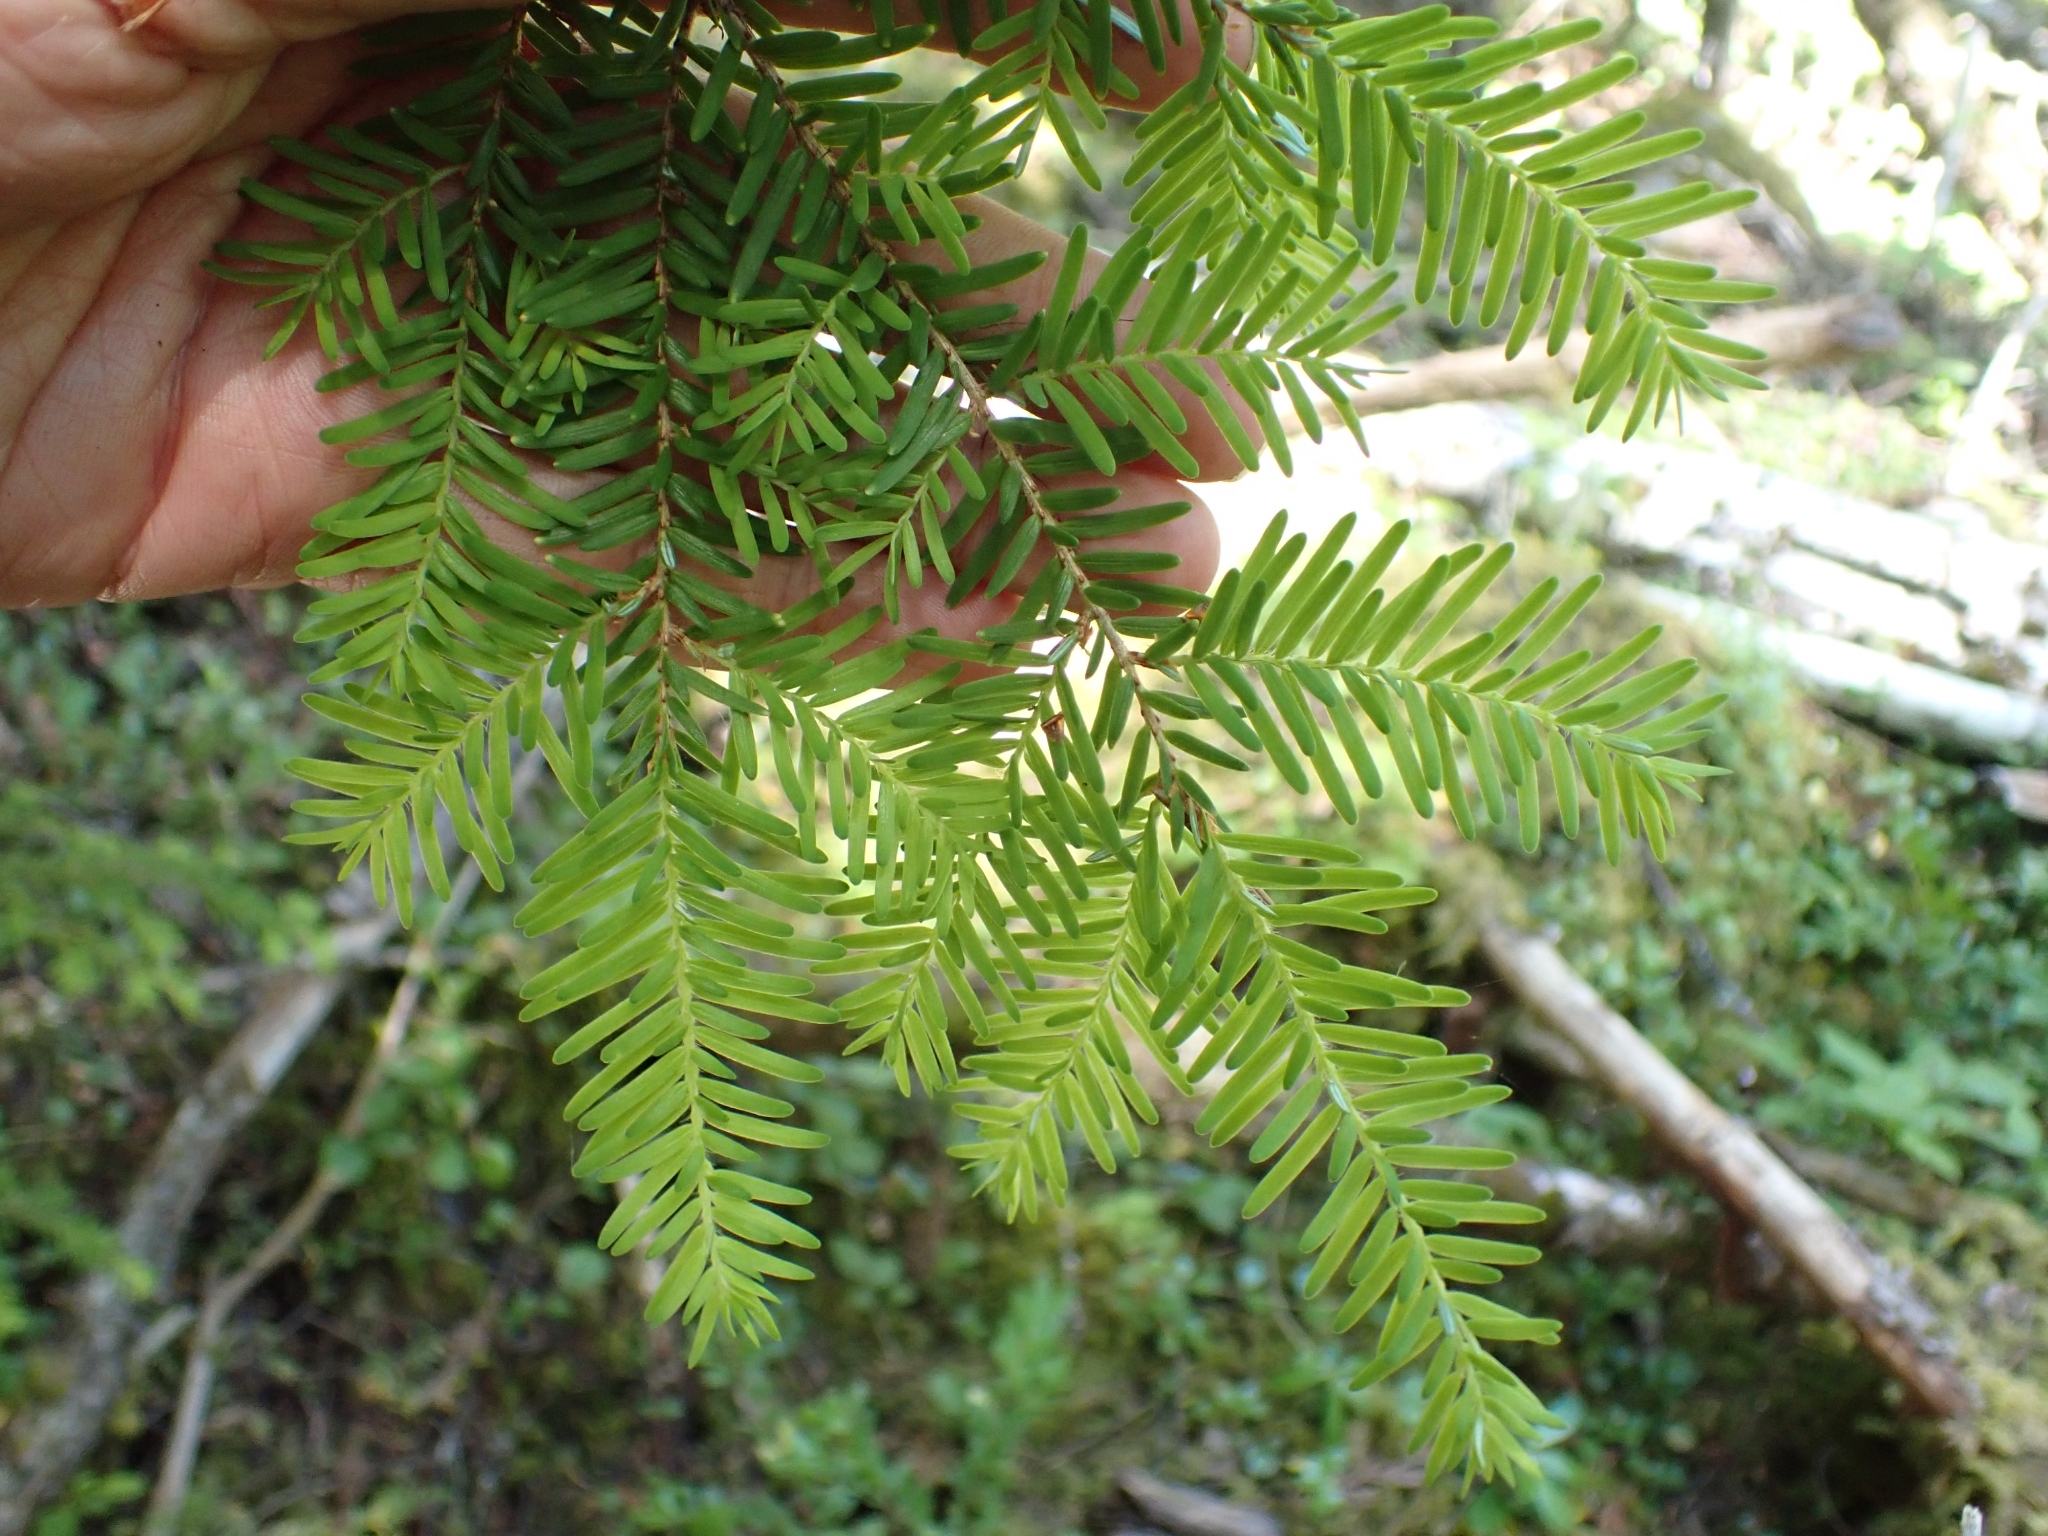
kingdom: Plantae
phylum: Tracheophyta
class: Pinopsida
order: Pinales
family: Pinaceae
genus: Tsuga
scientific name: Tsuga heterophylla
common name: Western hemlock
